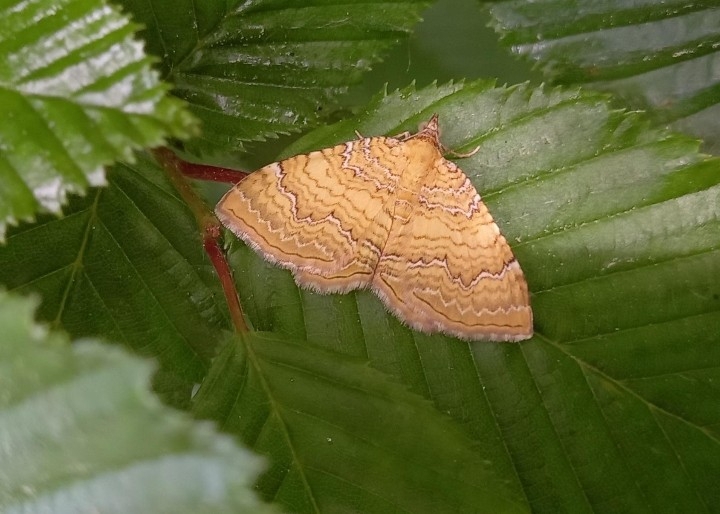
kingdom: Animalia
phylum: Arthropoda
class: Insecta
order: Lepidoptera
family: Geometridae
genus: Camptogramma
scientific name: Camptogramma bilineata
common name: Yellow shell
